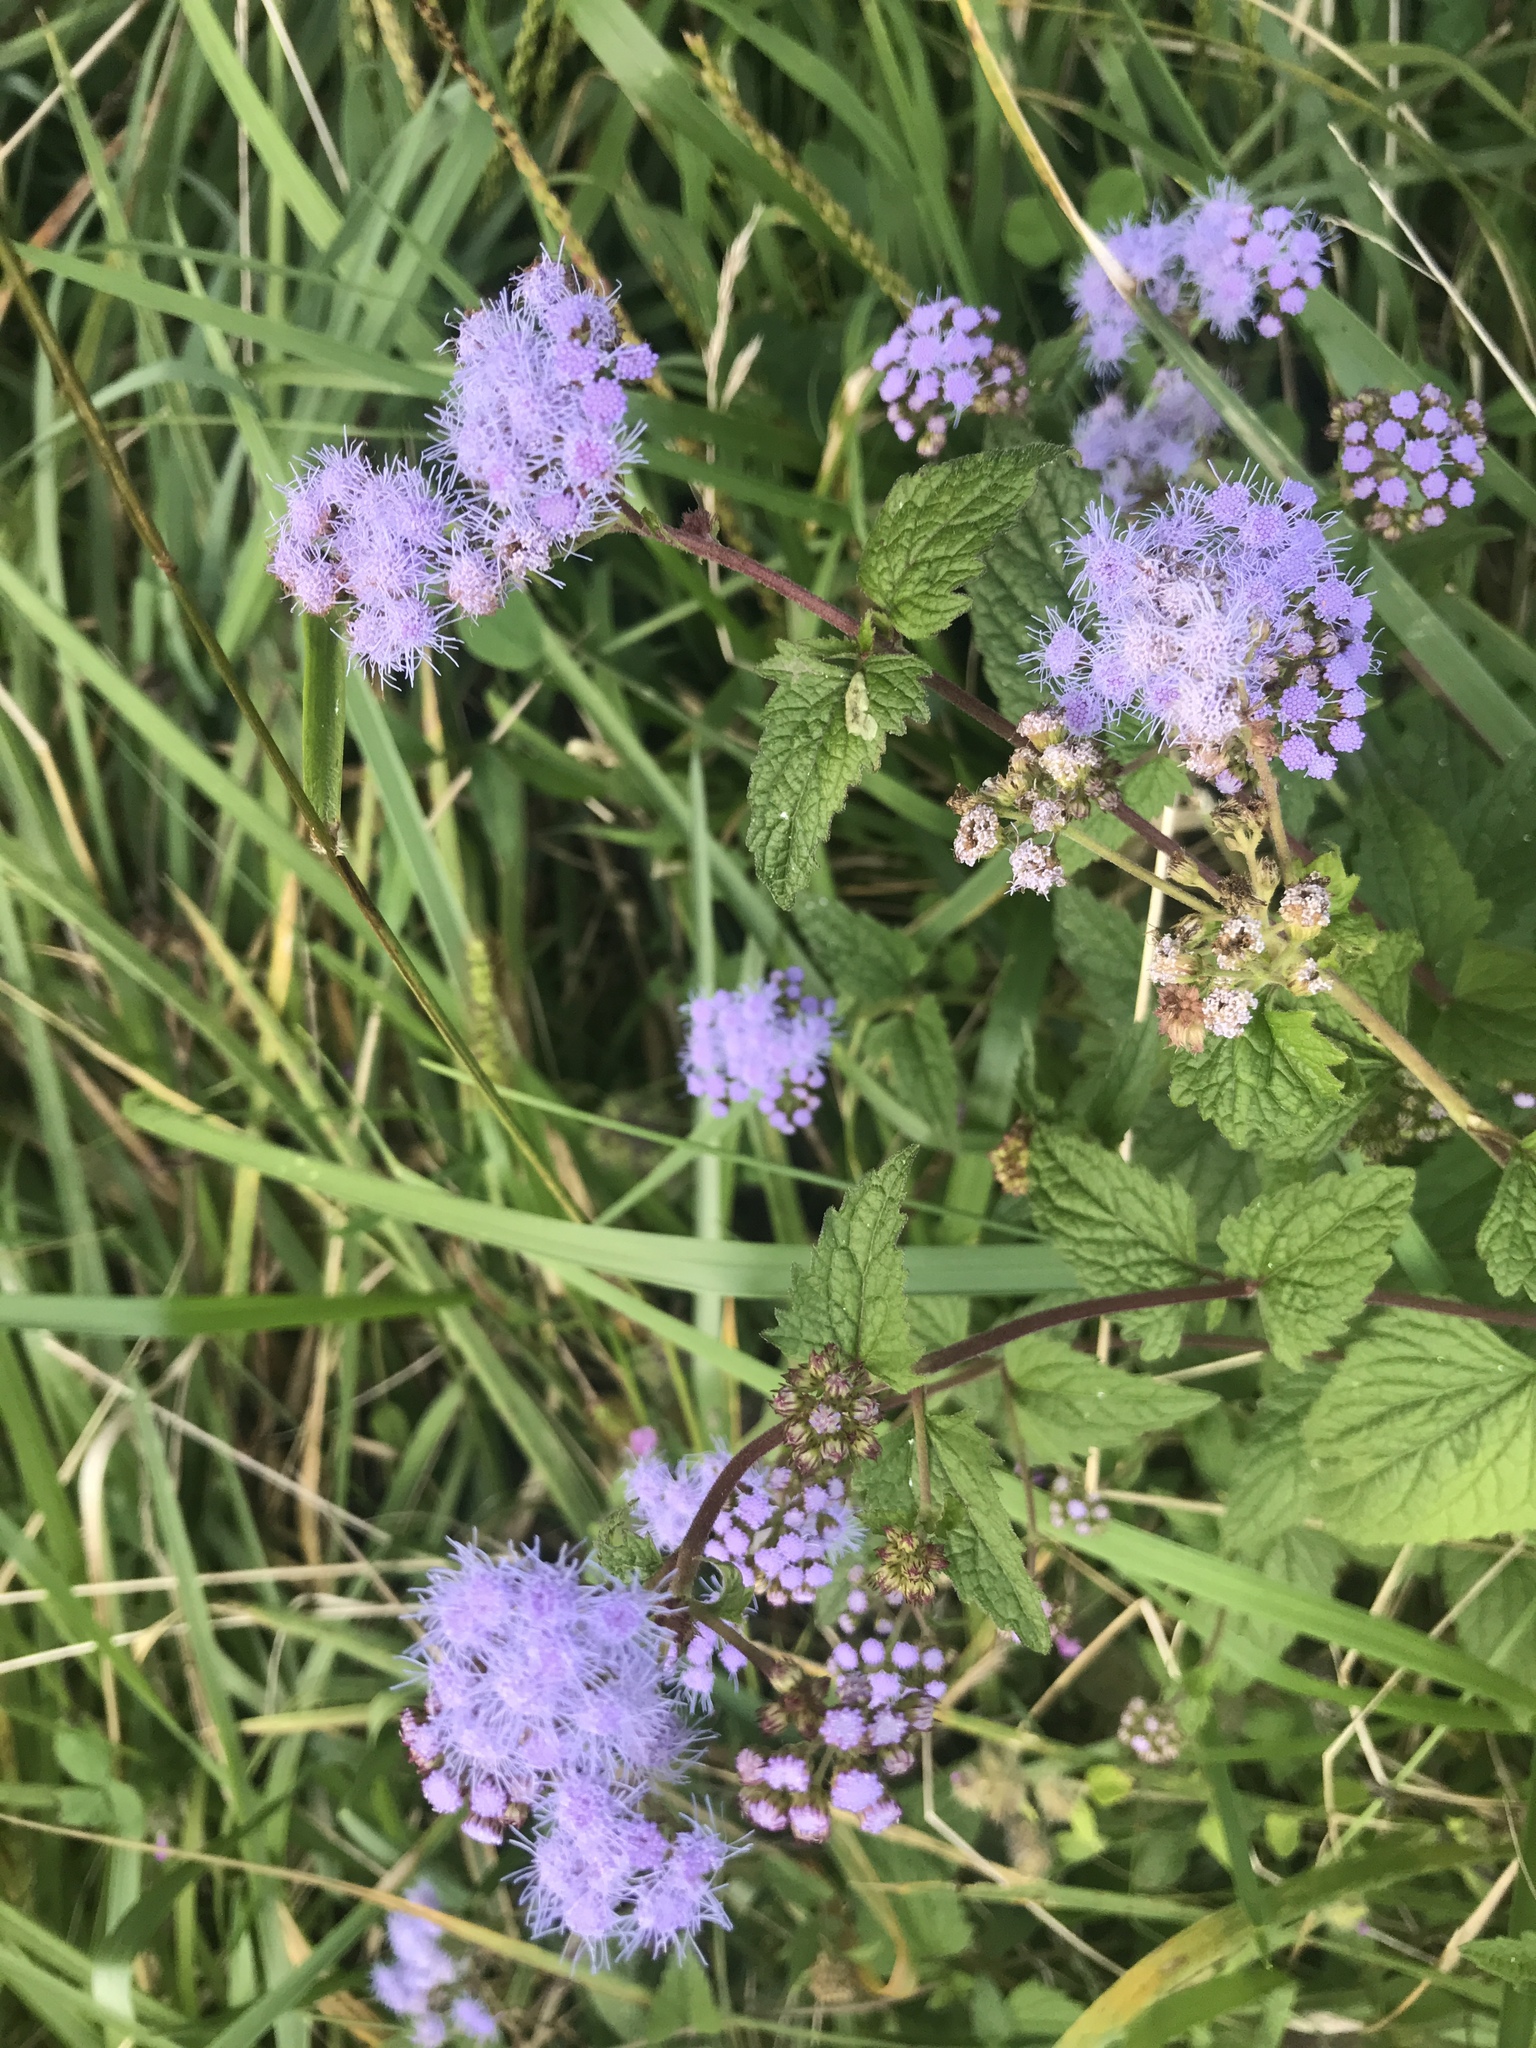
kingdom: Plantae
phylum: Tracheophyta
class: Magnoliopsida
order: Asterales
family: Asteraceae
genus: Conoclinium
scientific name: Conoclinium coelestinum
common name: Blue mistflower
